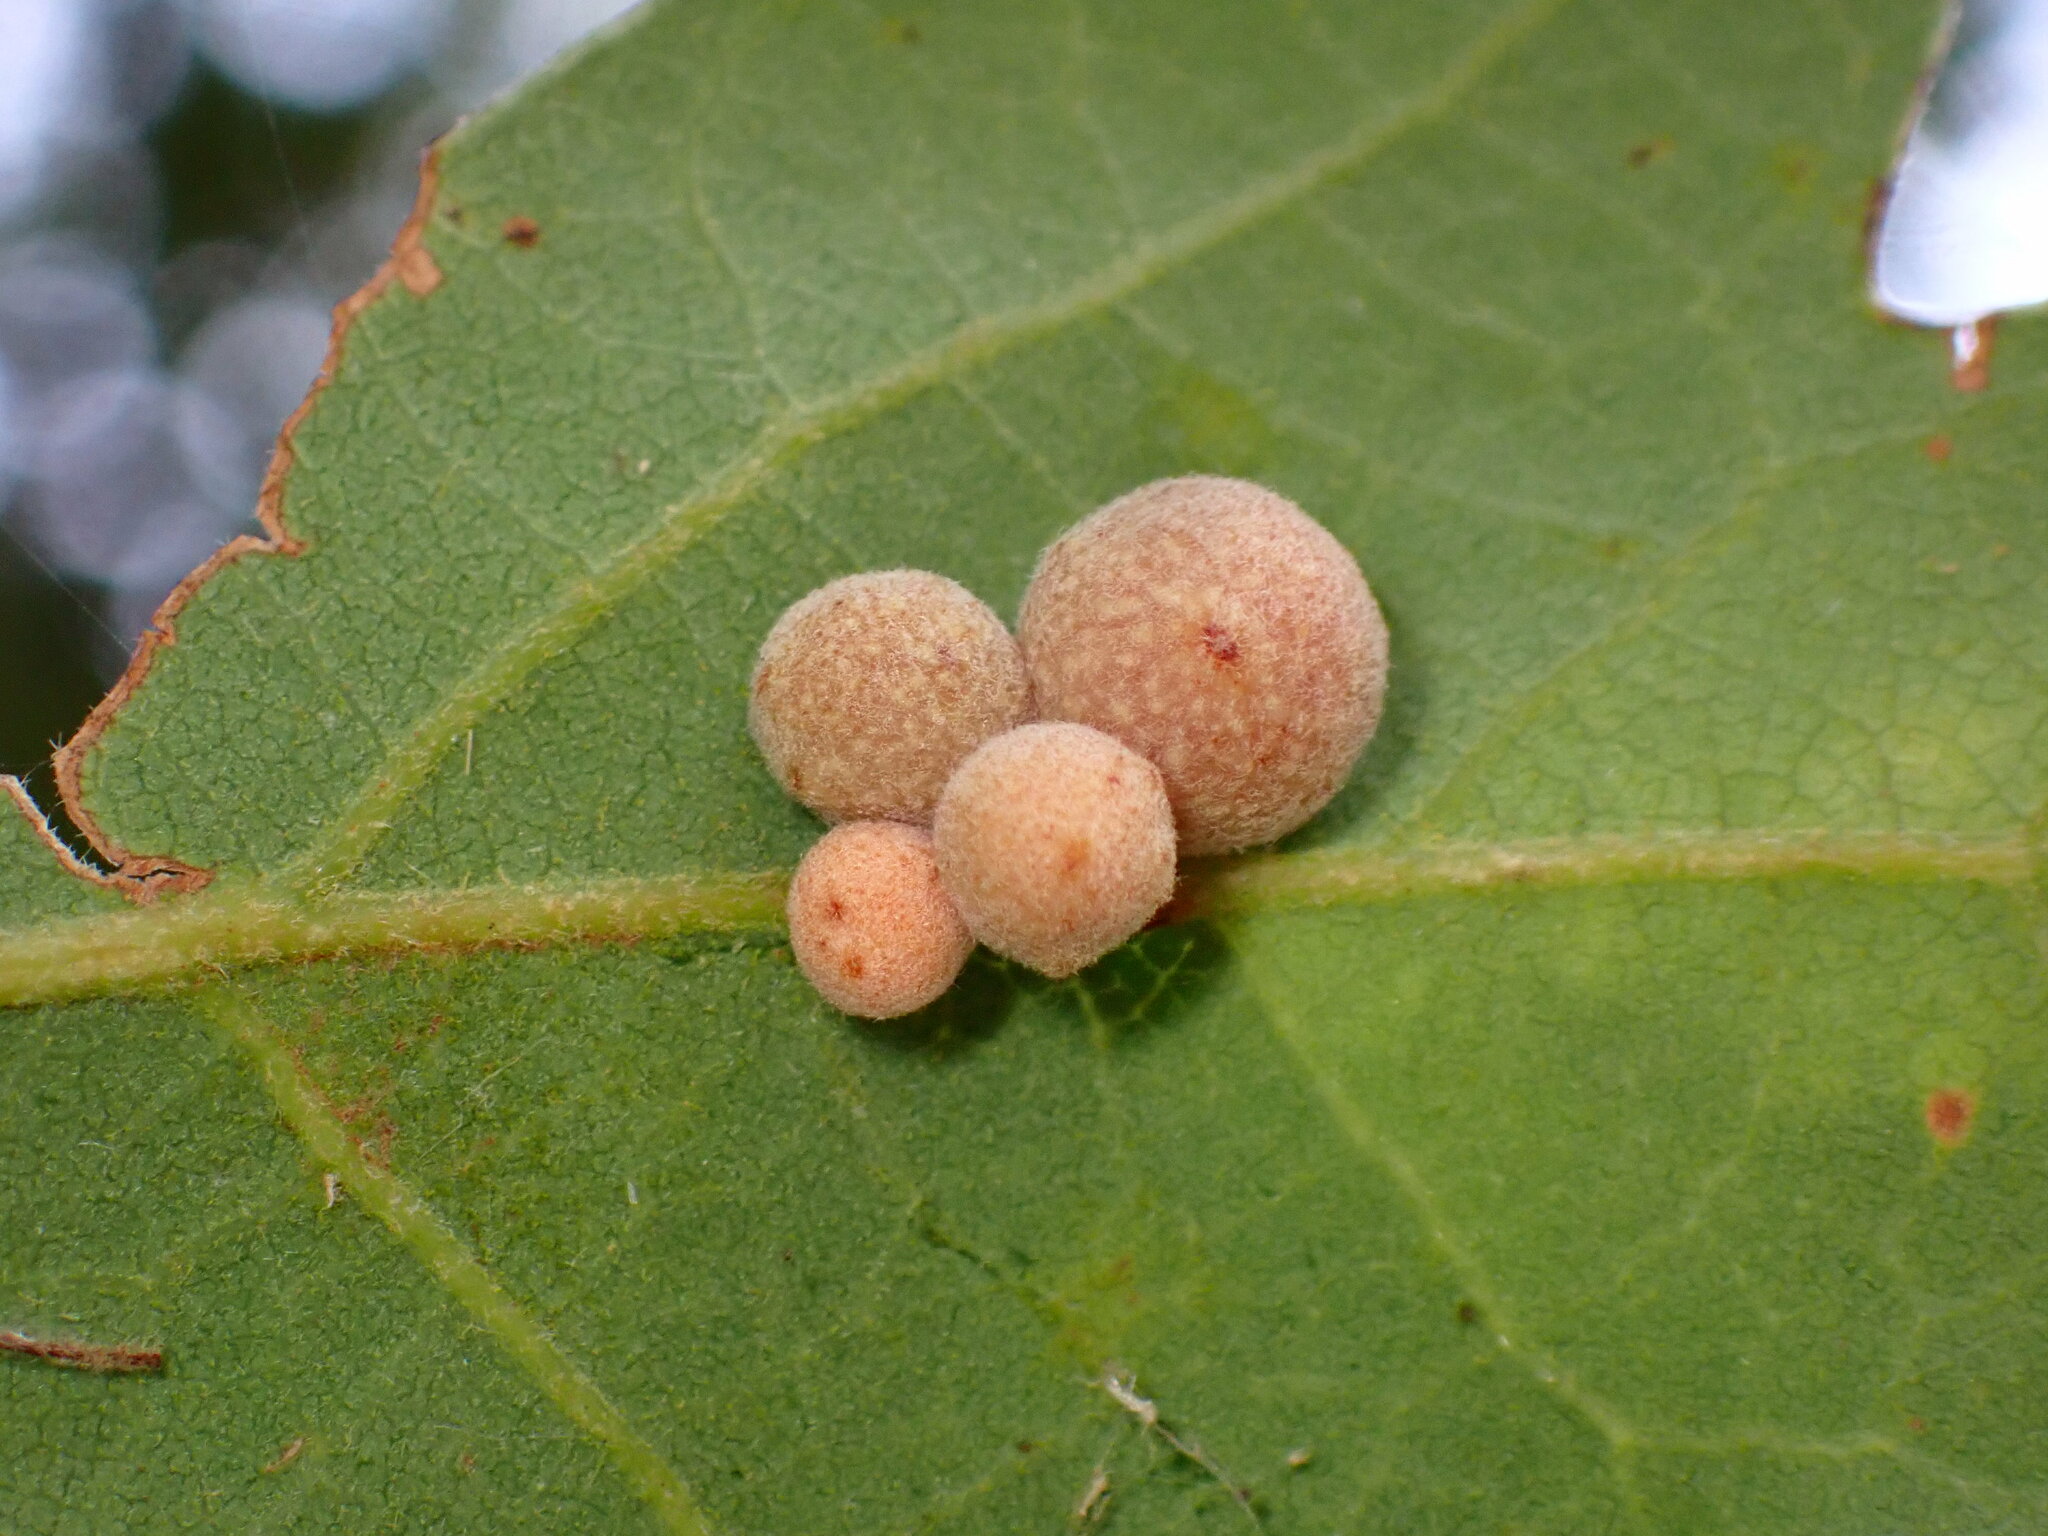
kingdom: Animalia
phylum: Arthropoda
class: Insecta
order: Hymenoptera
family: Cynipidae
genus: Andricus
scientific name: Andricus
